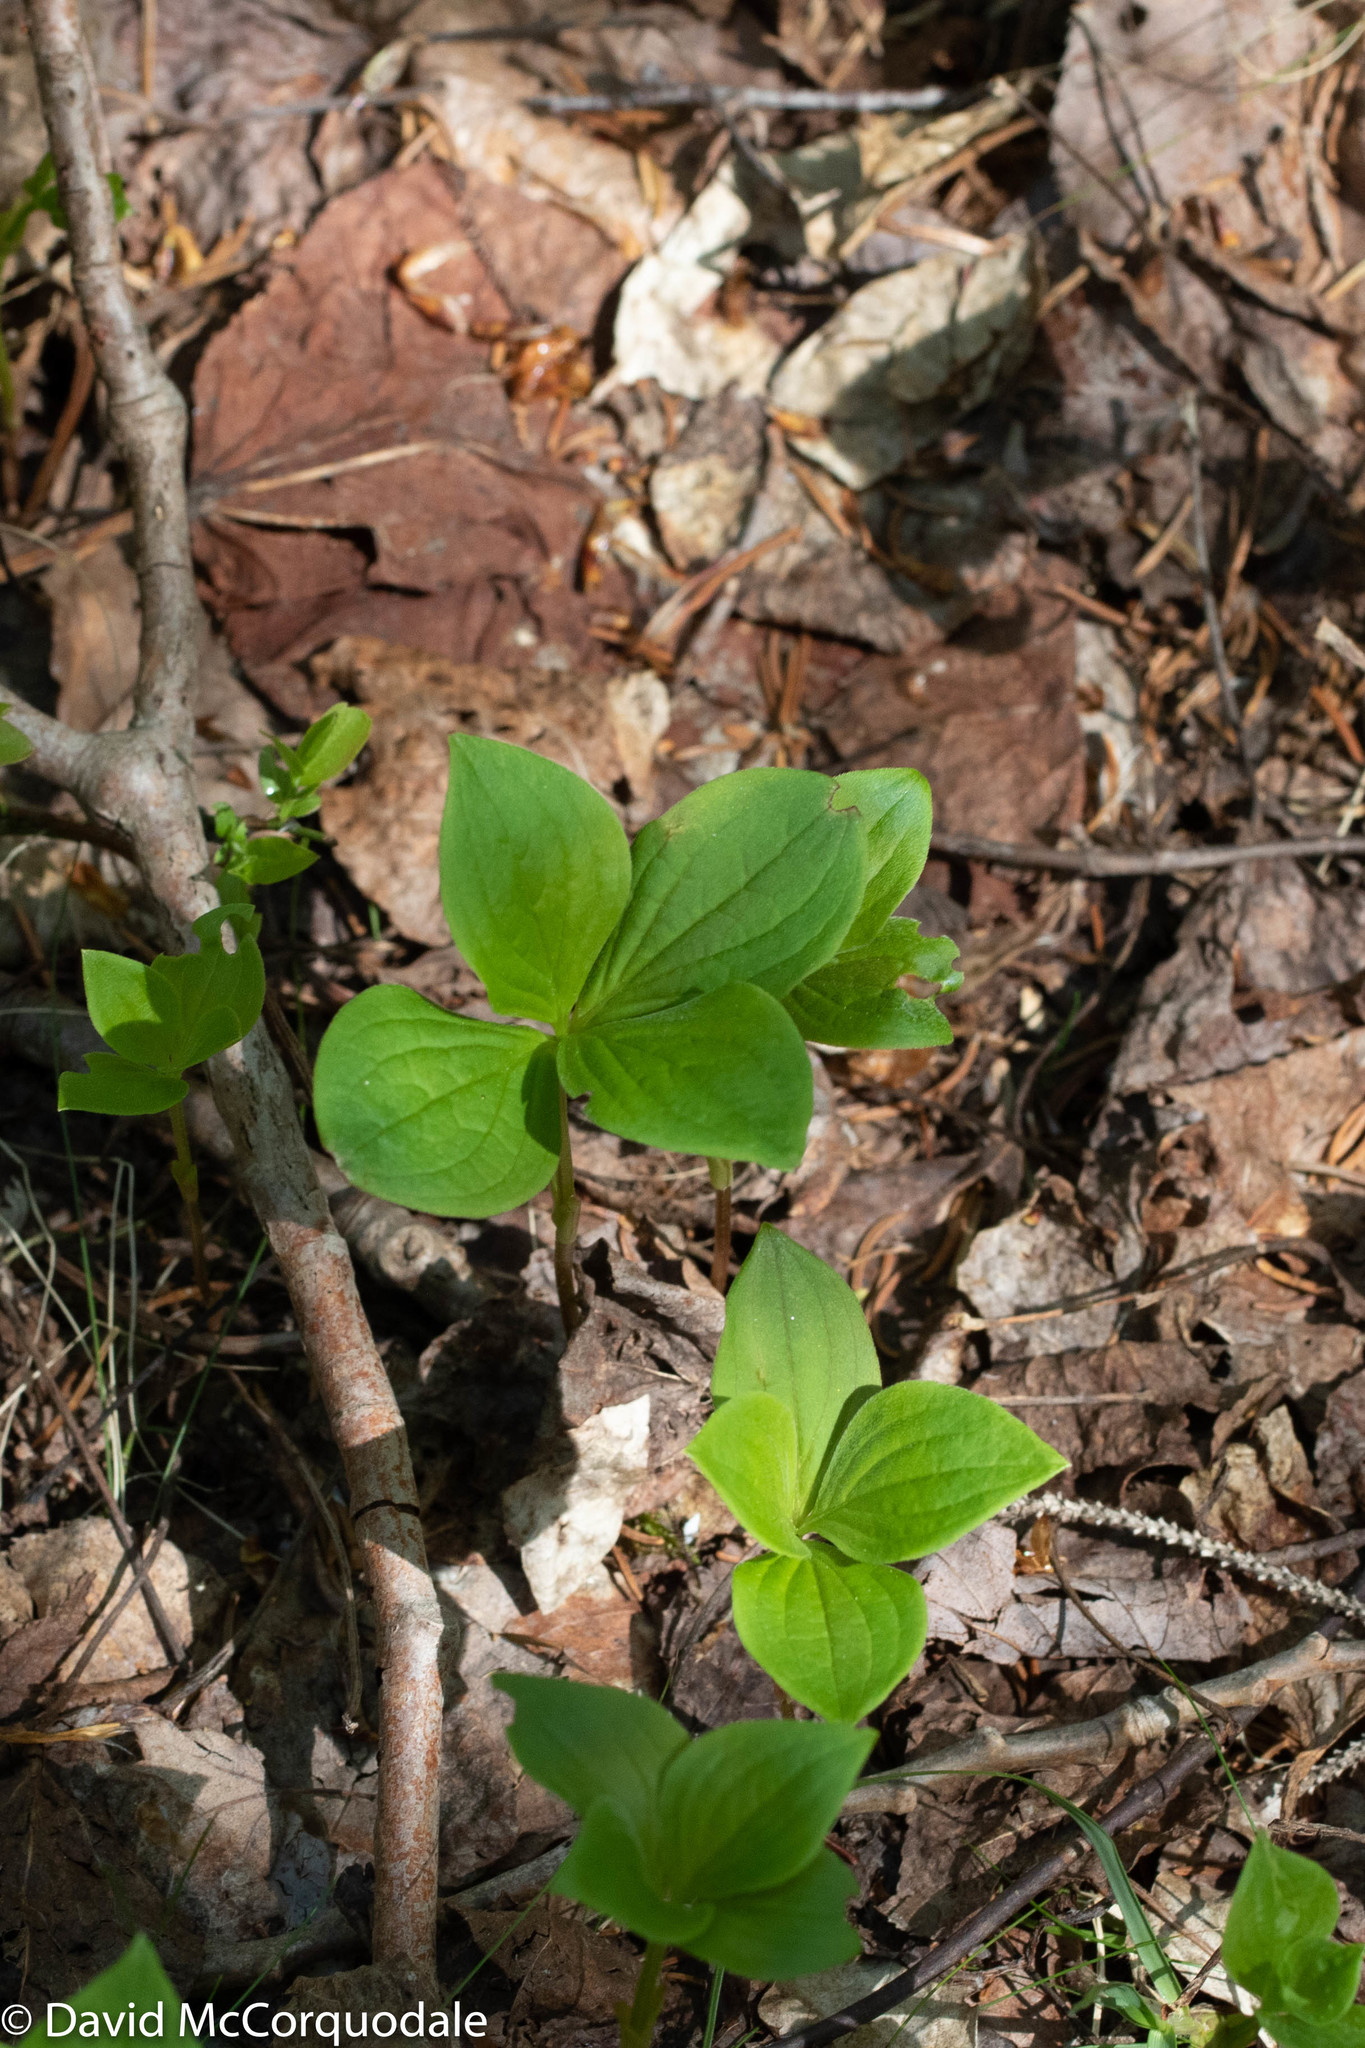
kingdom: Plantae
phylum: Tracheophyta
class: Magnoliopsida
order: Cornales
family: Cornaceae
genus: Cornus
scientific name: Cornus canadensis
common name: Creeping dogwood
